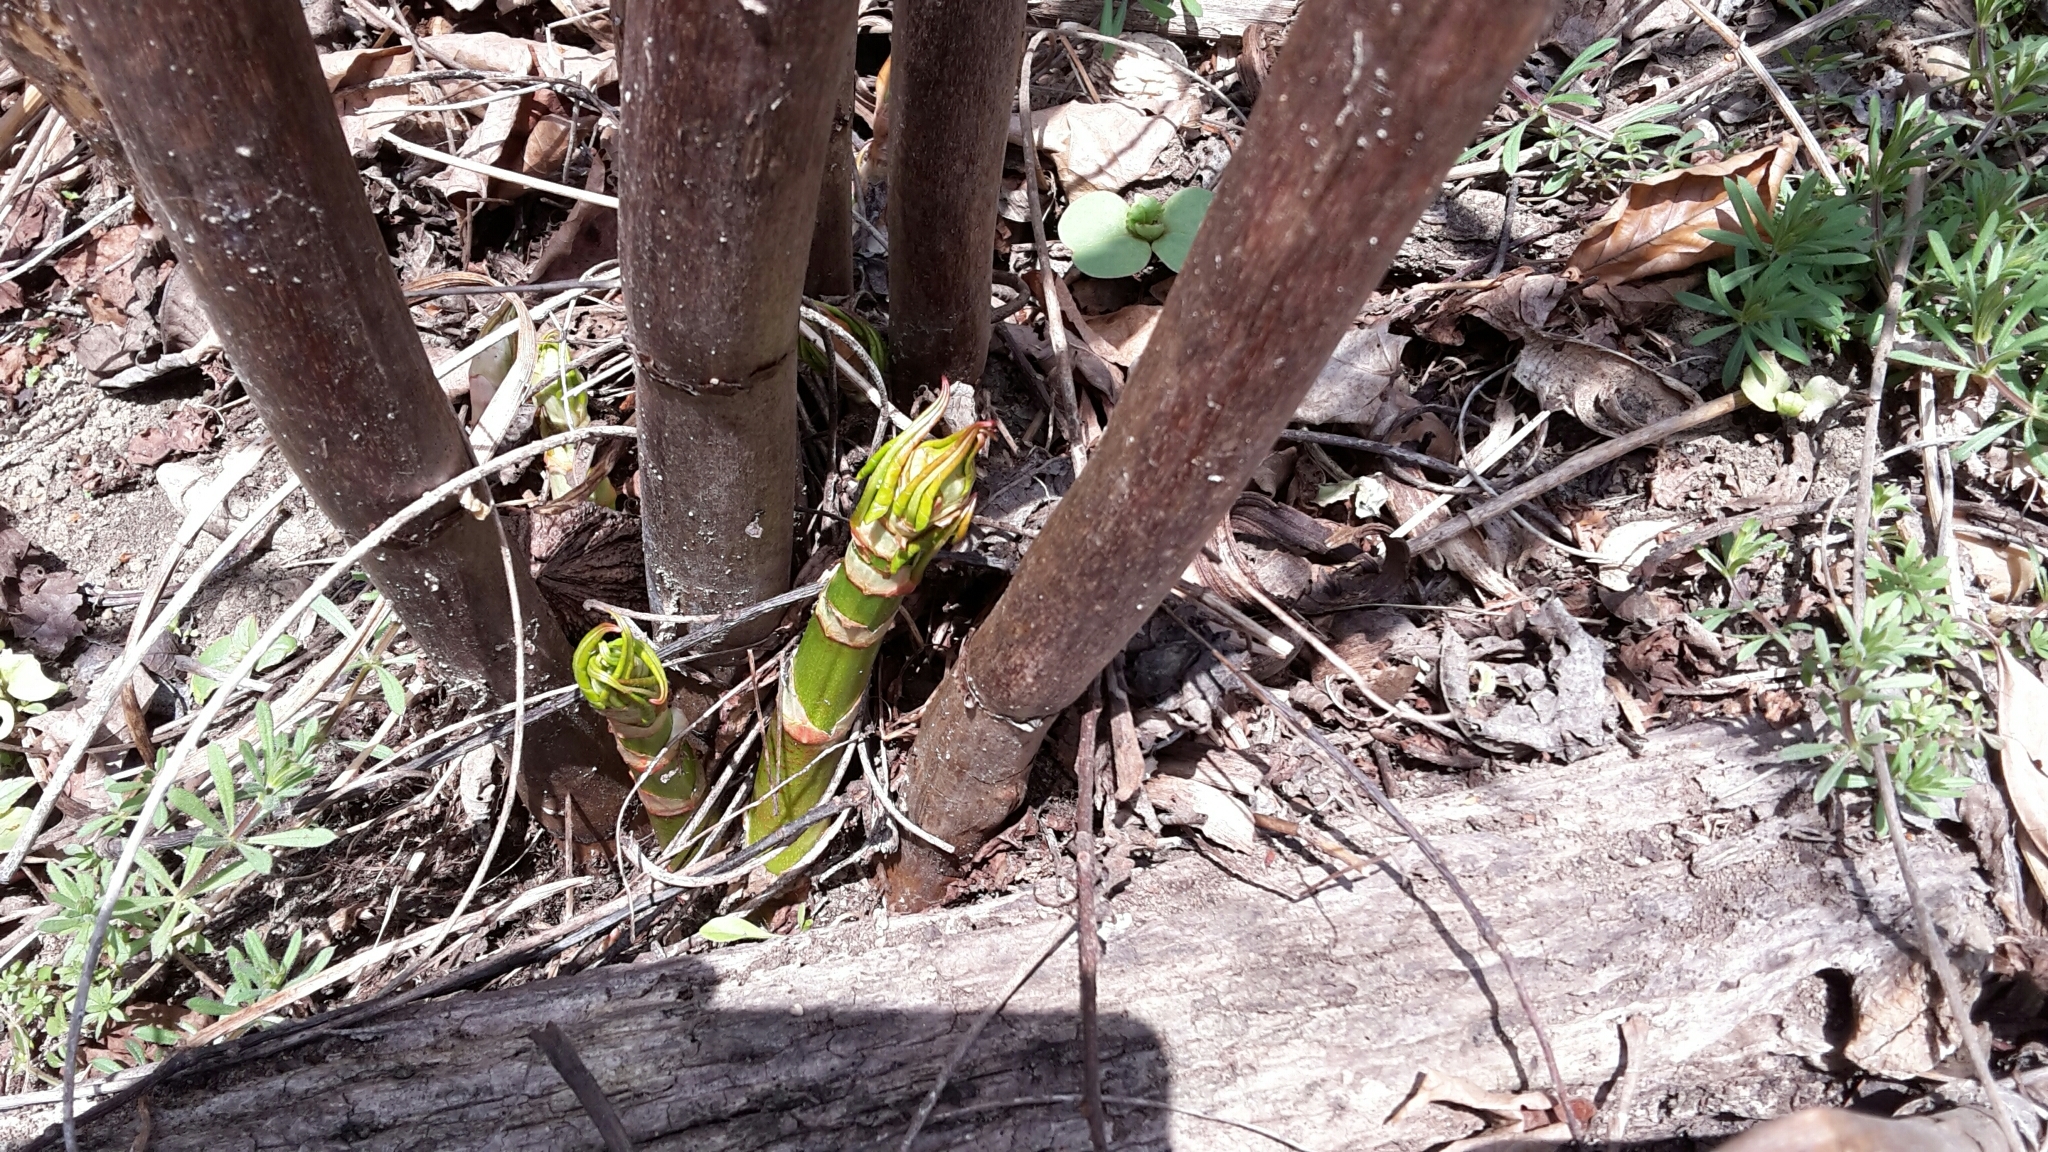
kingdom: Plantae
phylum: Tracheophyta
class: Magnoliopsida
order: Caryophyllales
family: Polygonaceae
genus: Reynoutria
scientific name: Reynoutria bohemica
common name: Bohemian knotweed
